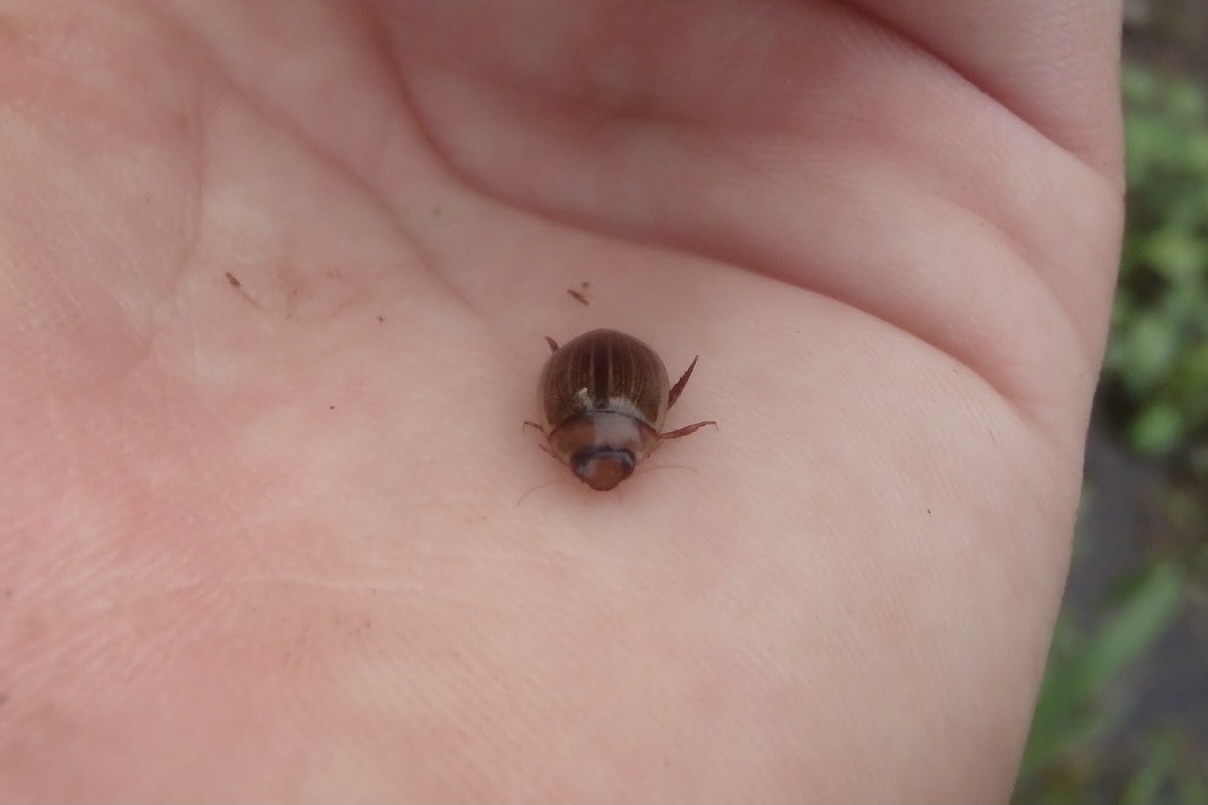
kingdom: Animalia
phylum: Arthropoda
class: Insecta
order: Coleoptera
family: Dytiscidae
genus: Hydaticus
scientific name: Hydaticus grammicus
